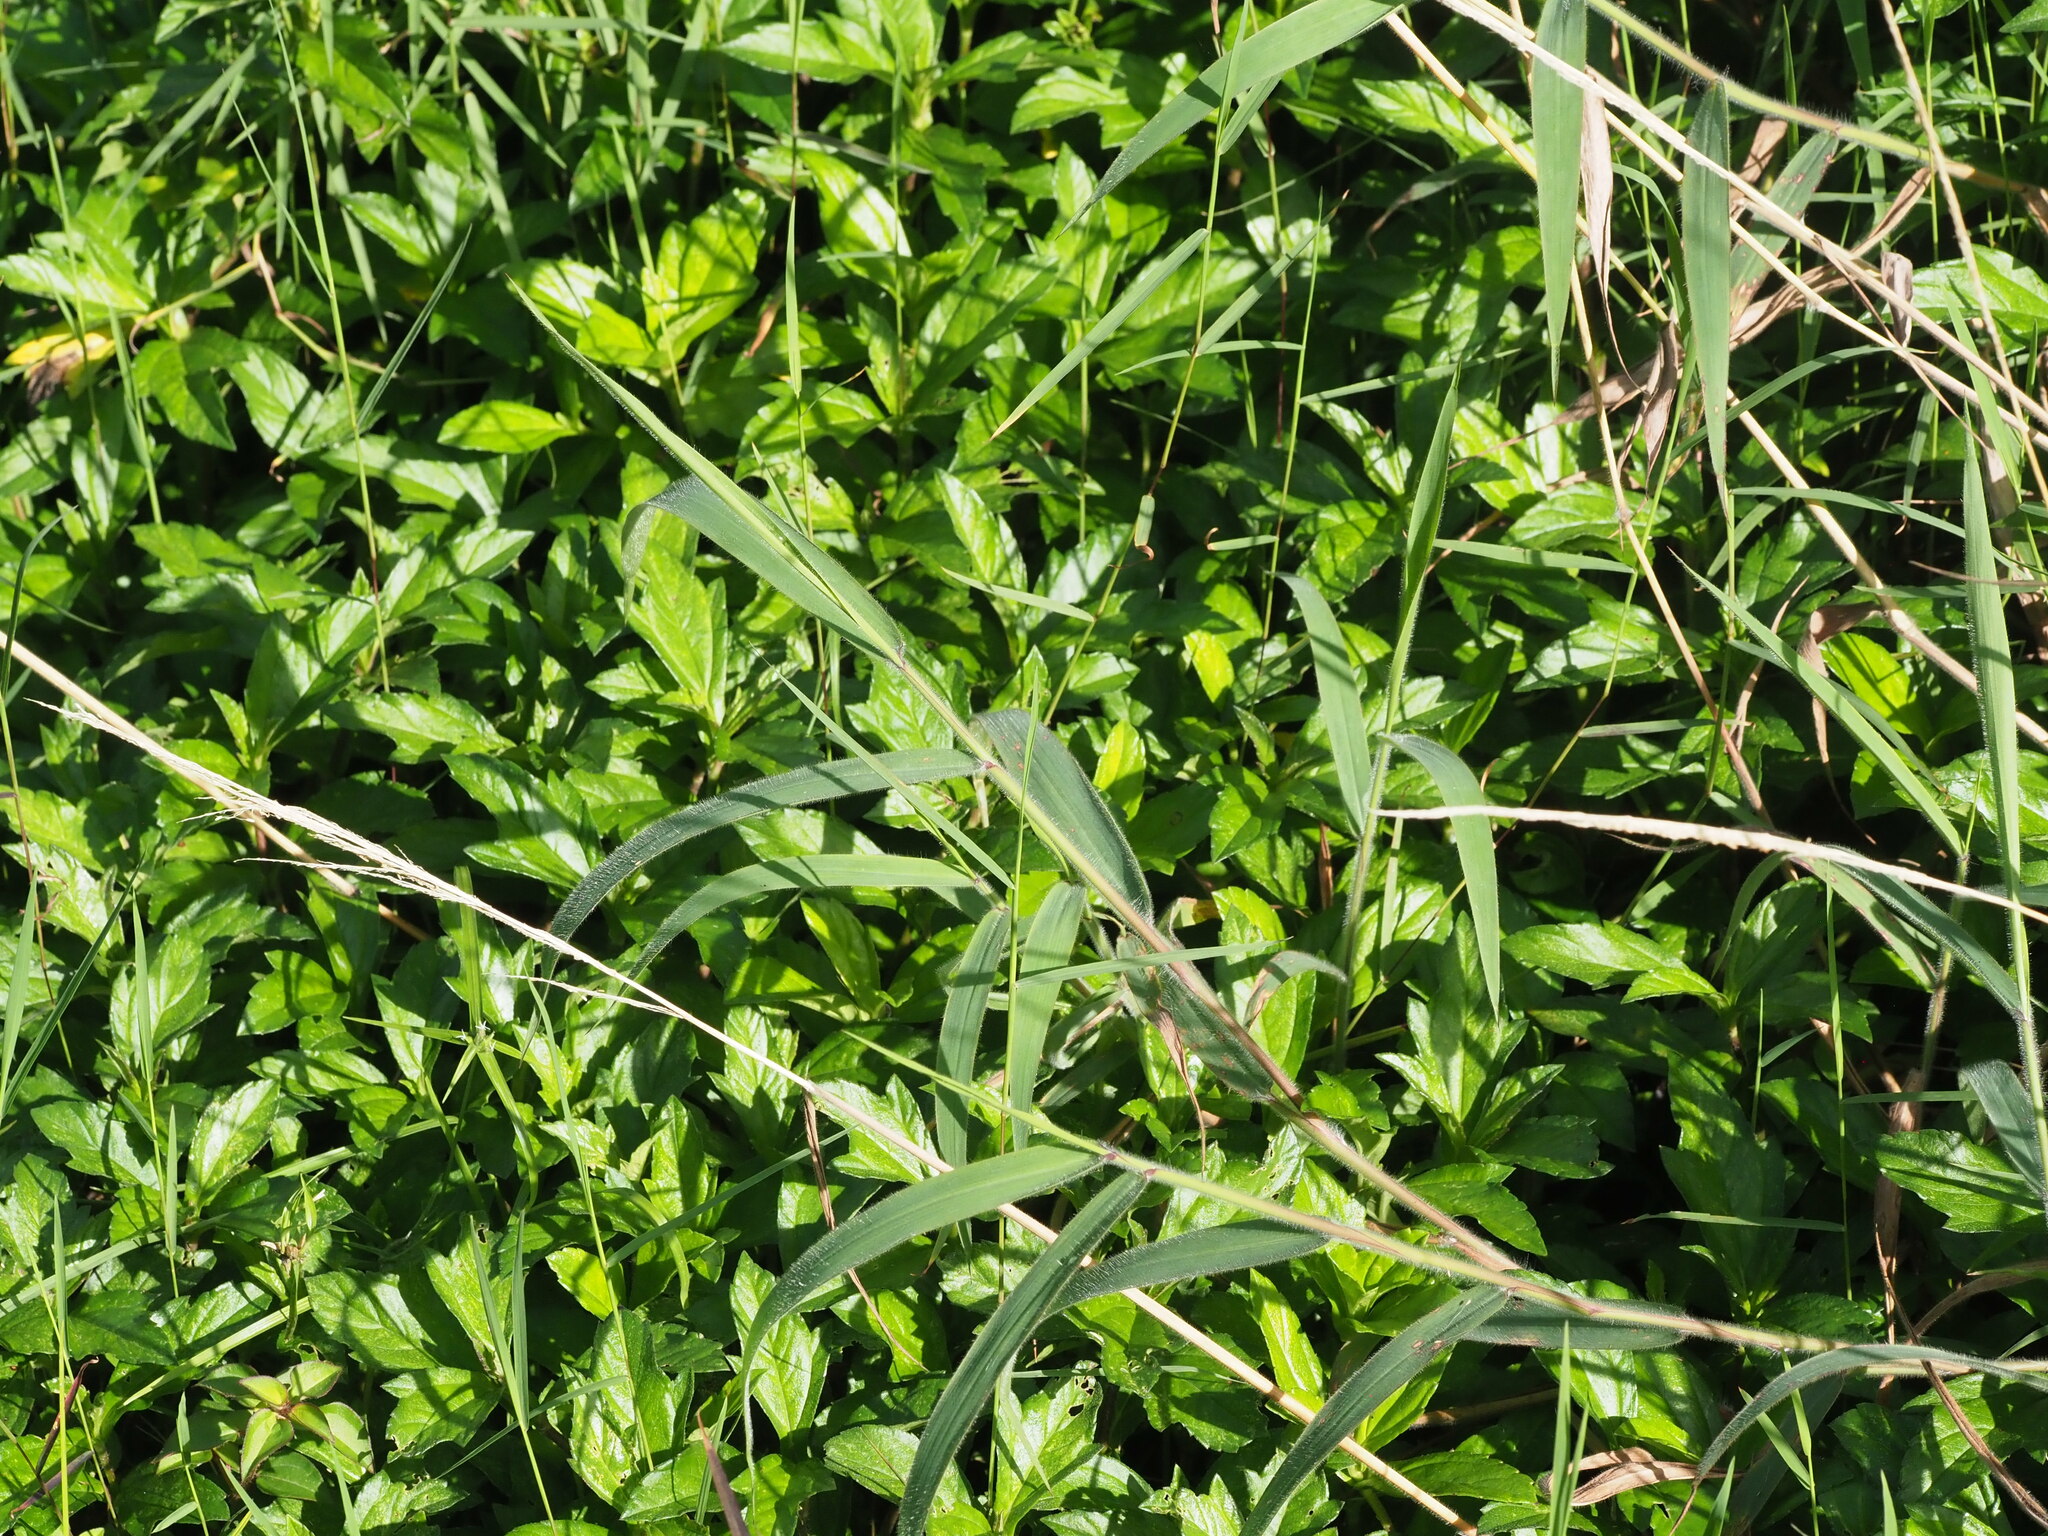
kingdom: Plantae
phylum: Tracheophyta
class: Liliopsida
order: Poales
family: Poaceae
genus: Melinis
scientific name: Melinis minutiflora
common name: Molassesgrass
